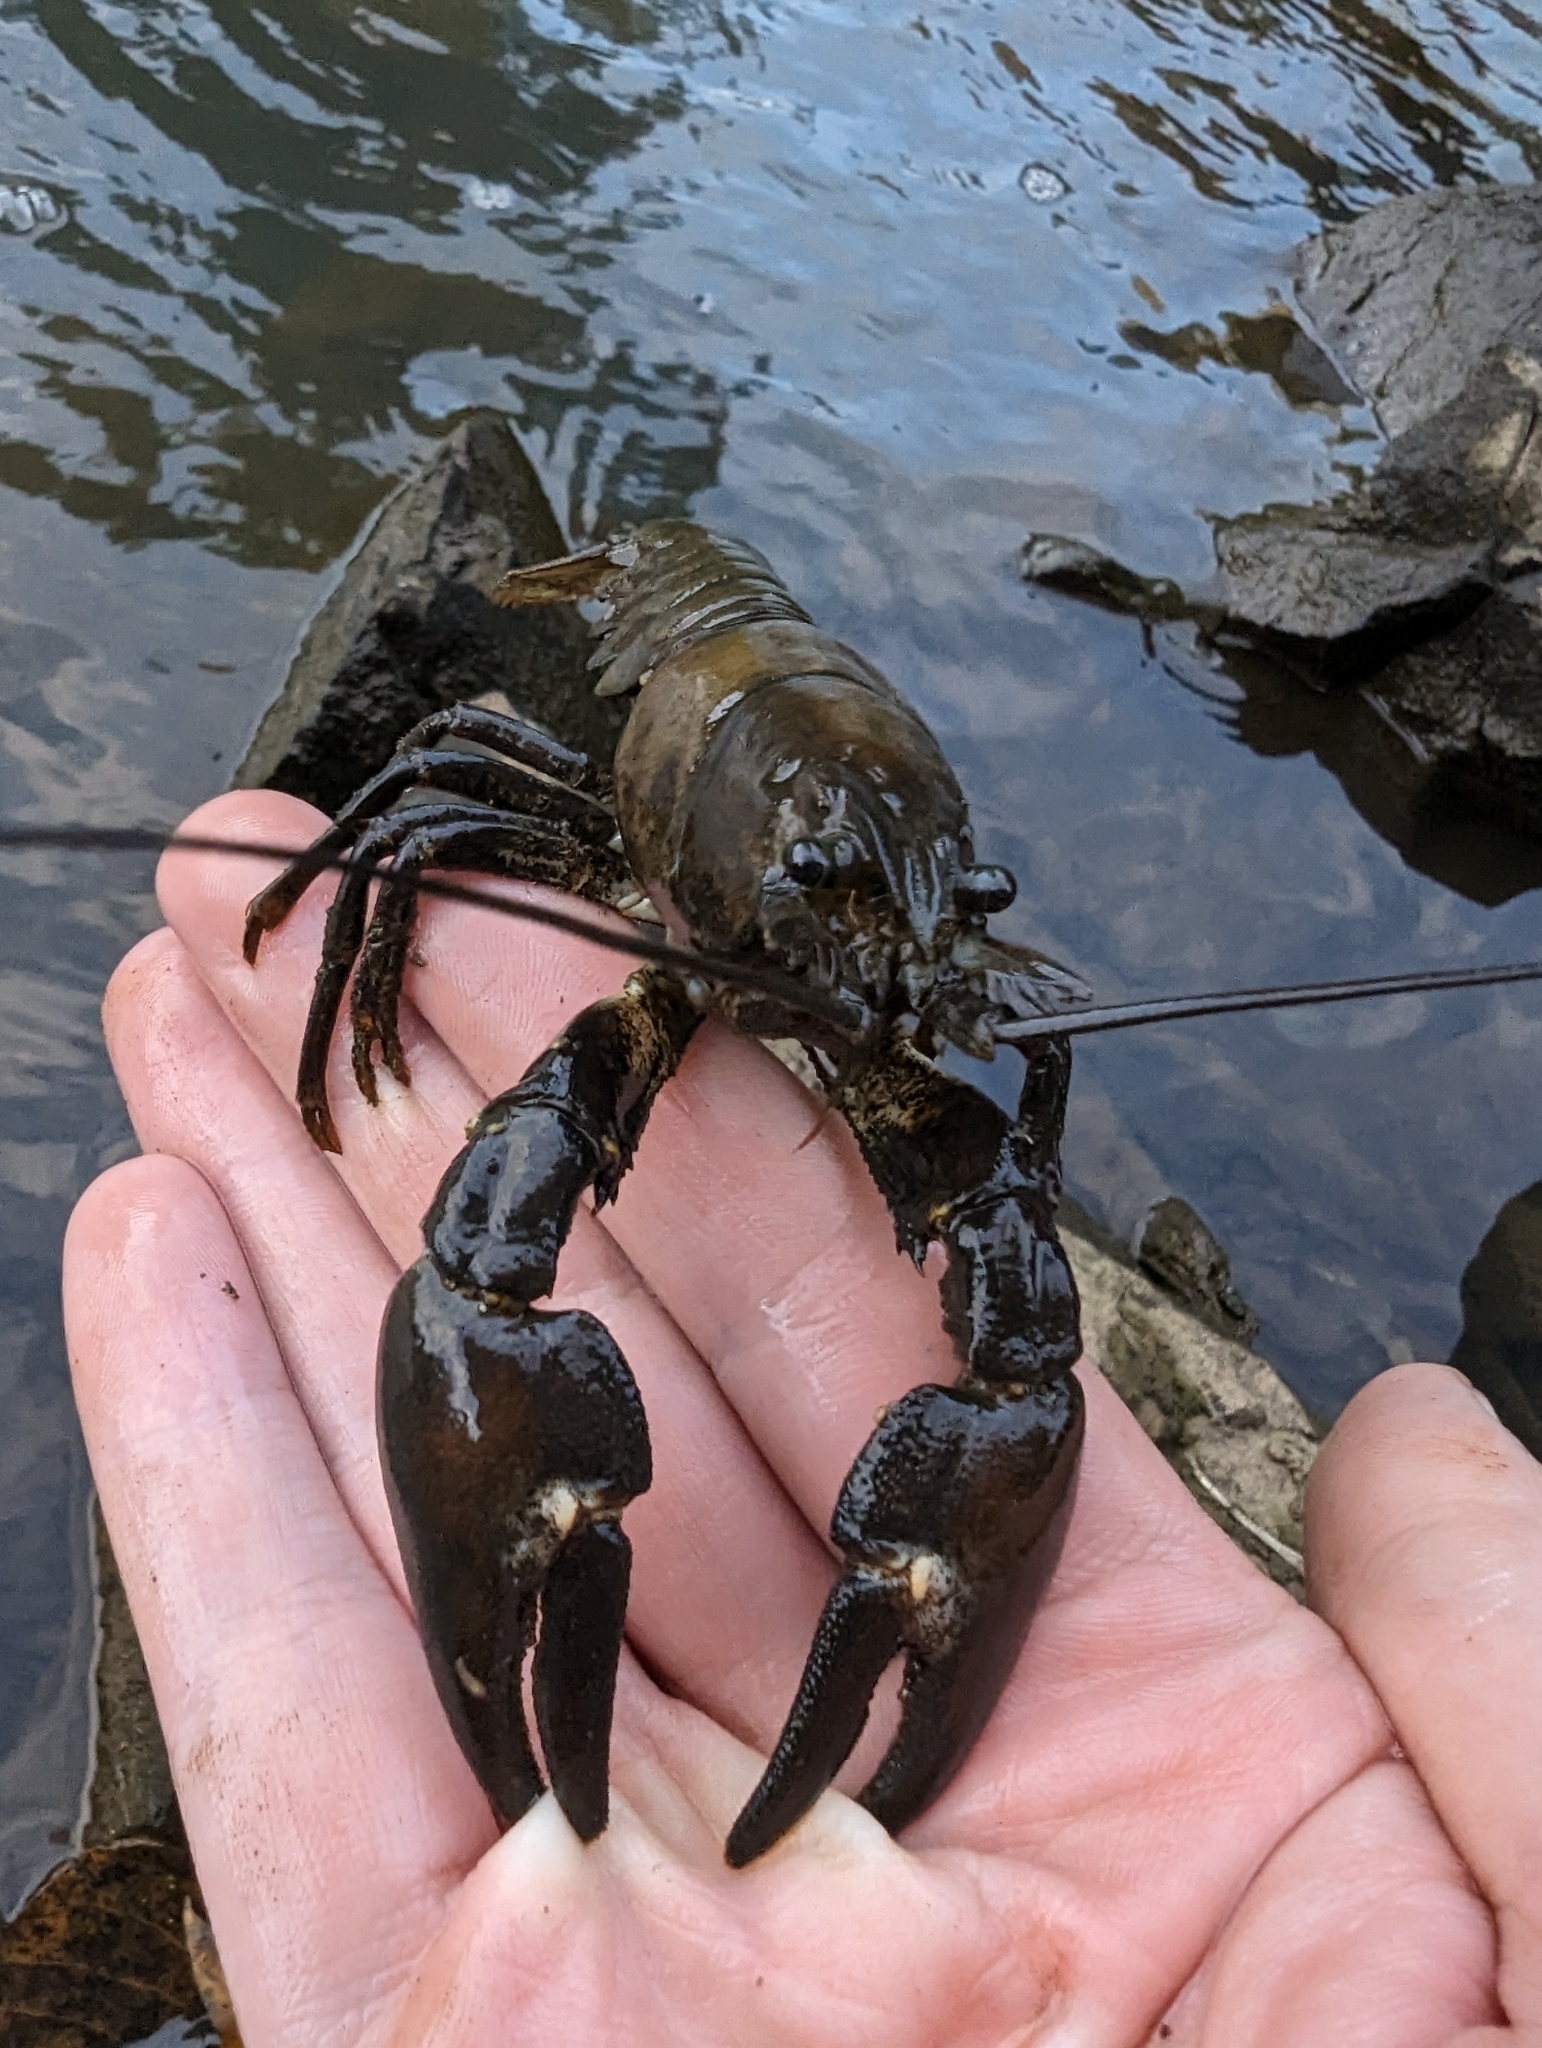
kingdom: Animalia
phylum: Arthropoda
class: Malacostraca
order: Decapoda
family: Astacidae
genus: Pacifastacus
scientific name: Pacifastacus leniusculus
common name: Signal crayfish
